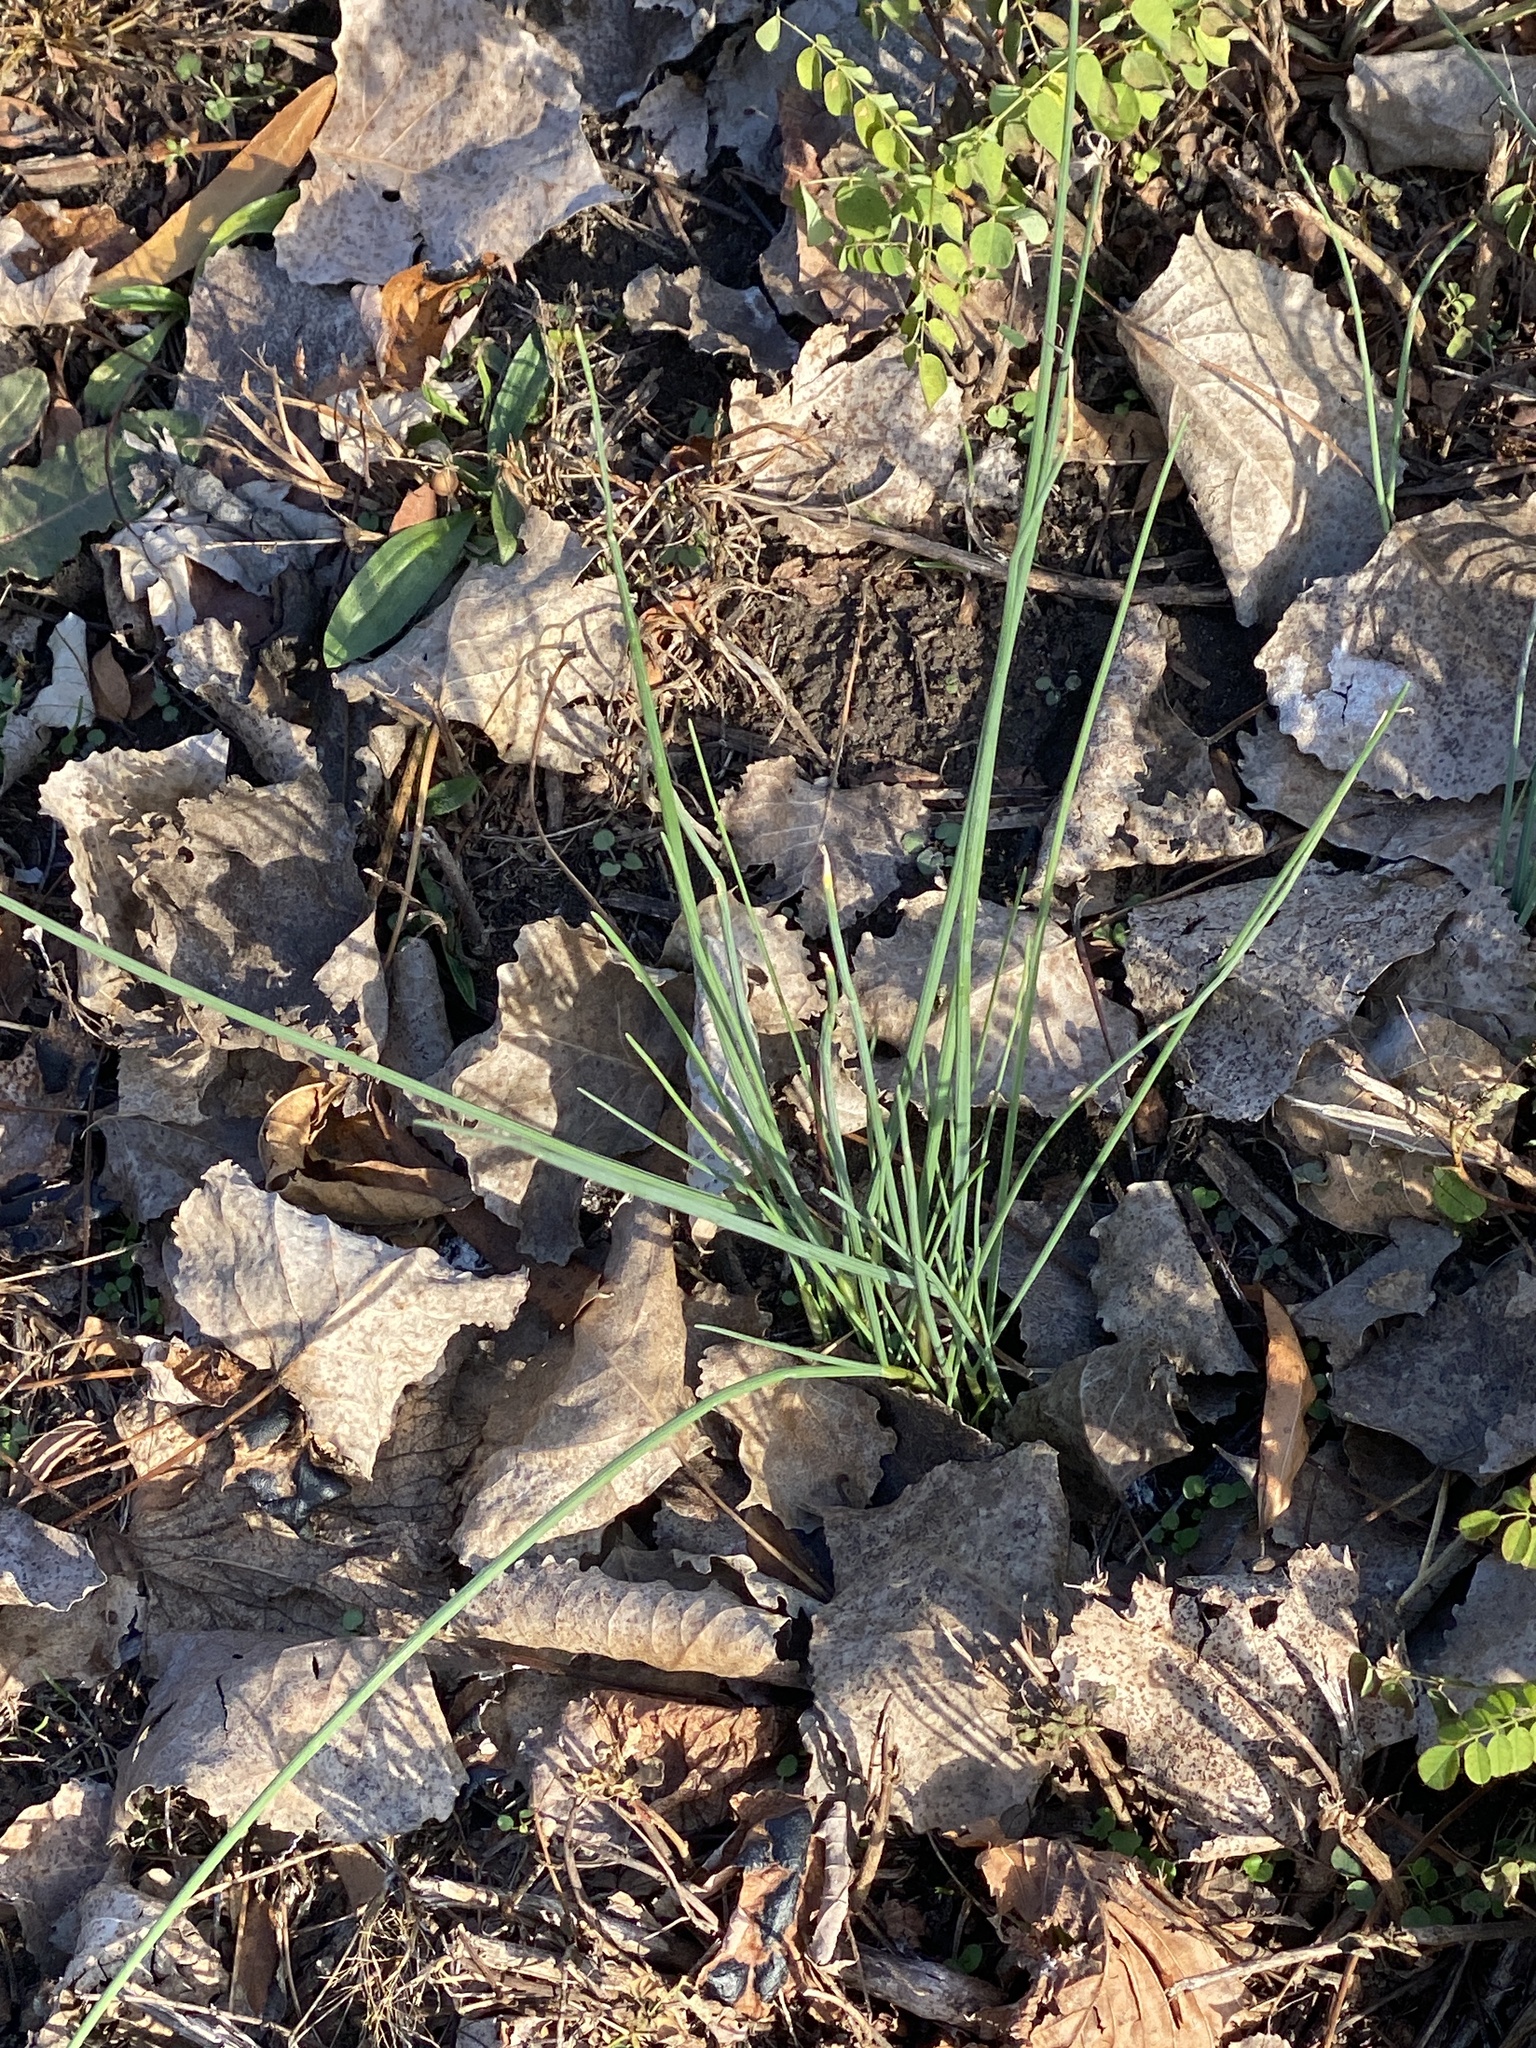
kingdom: Plantae
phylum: Tracheophyta
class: Liliopsida
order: Asparagales
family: Amaryllidaceae
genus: Allium
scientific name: Allium vineale
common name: Crow garlic
